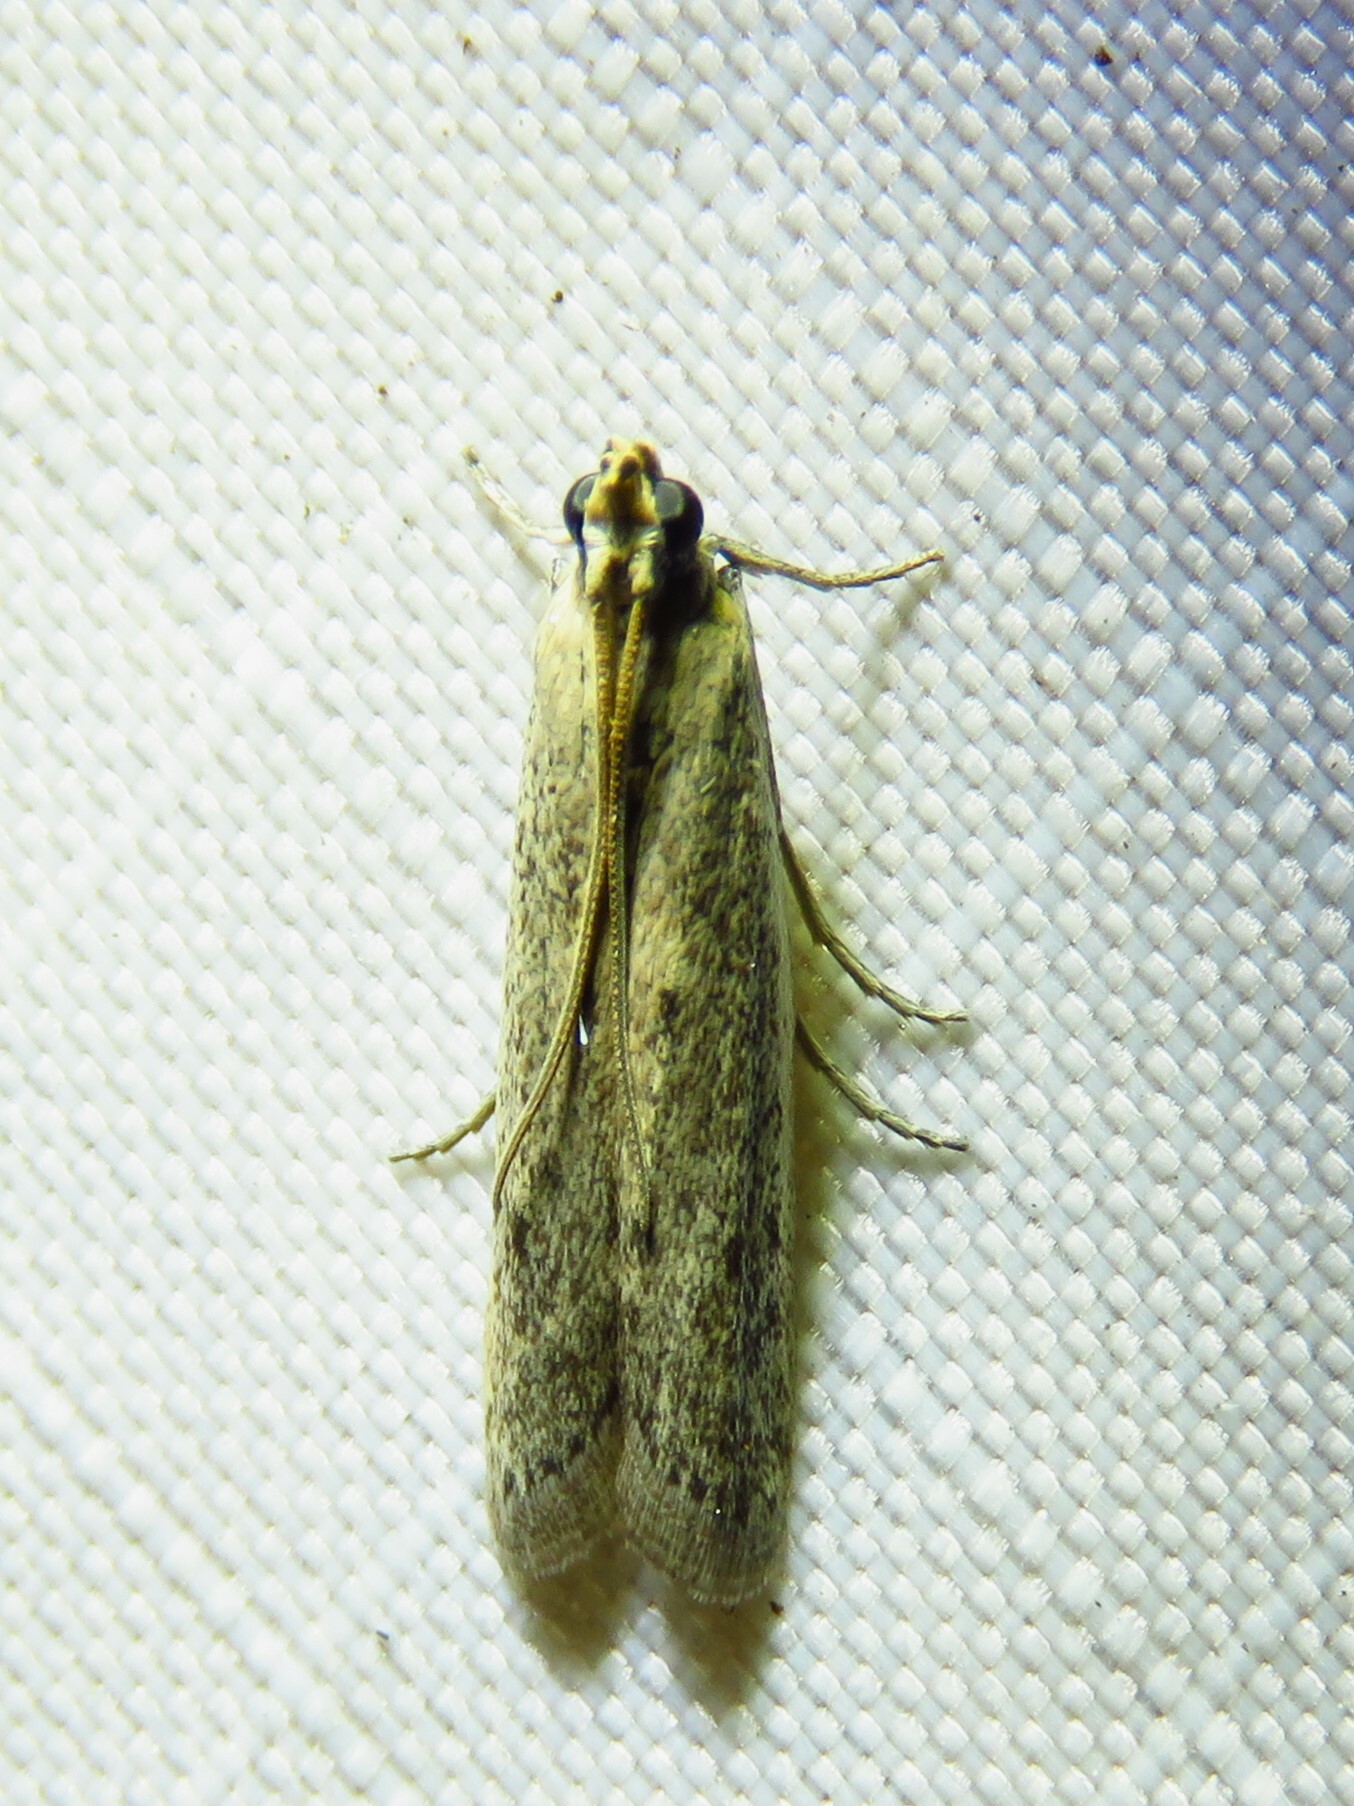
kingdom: Animalia
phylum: Arthropoda
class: Insecta
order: Lepidoptera
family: Pyralidae
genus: Homoeosoma
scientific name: Homoeosoma electella
